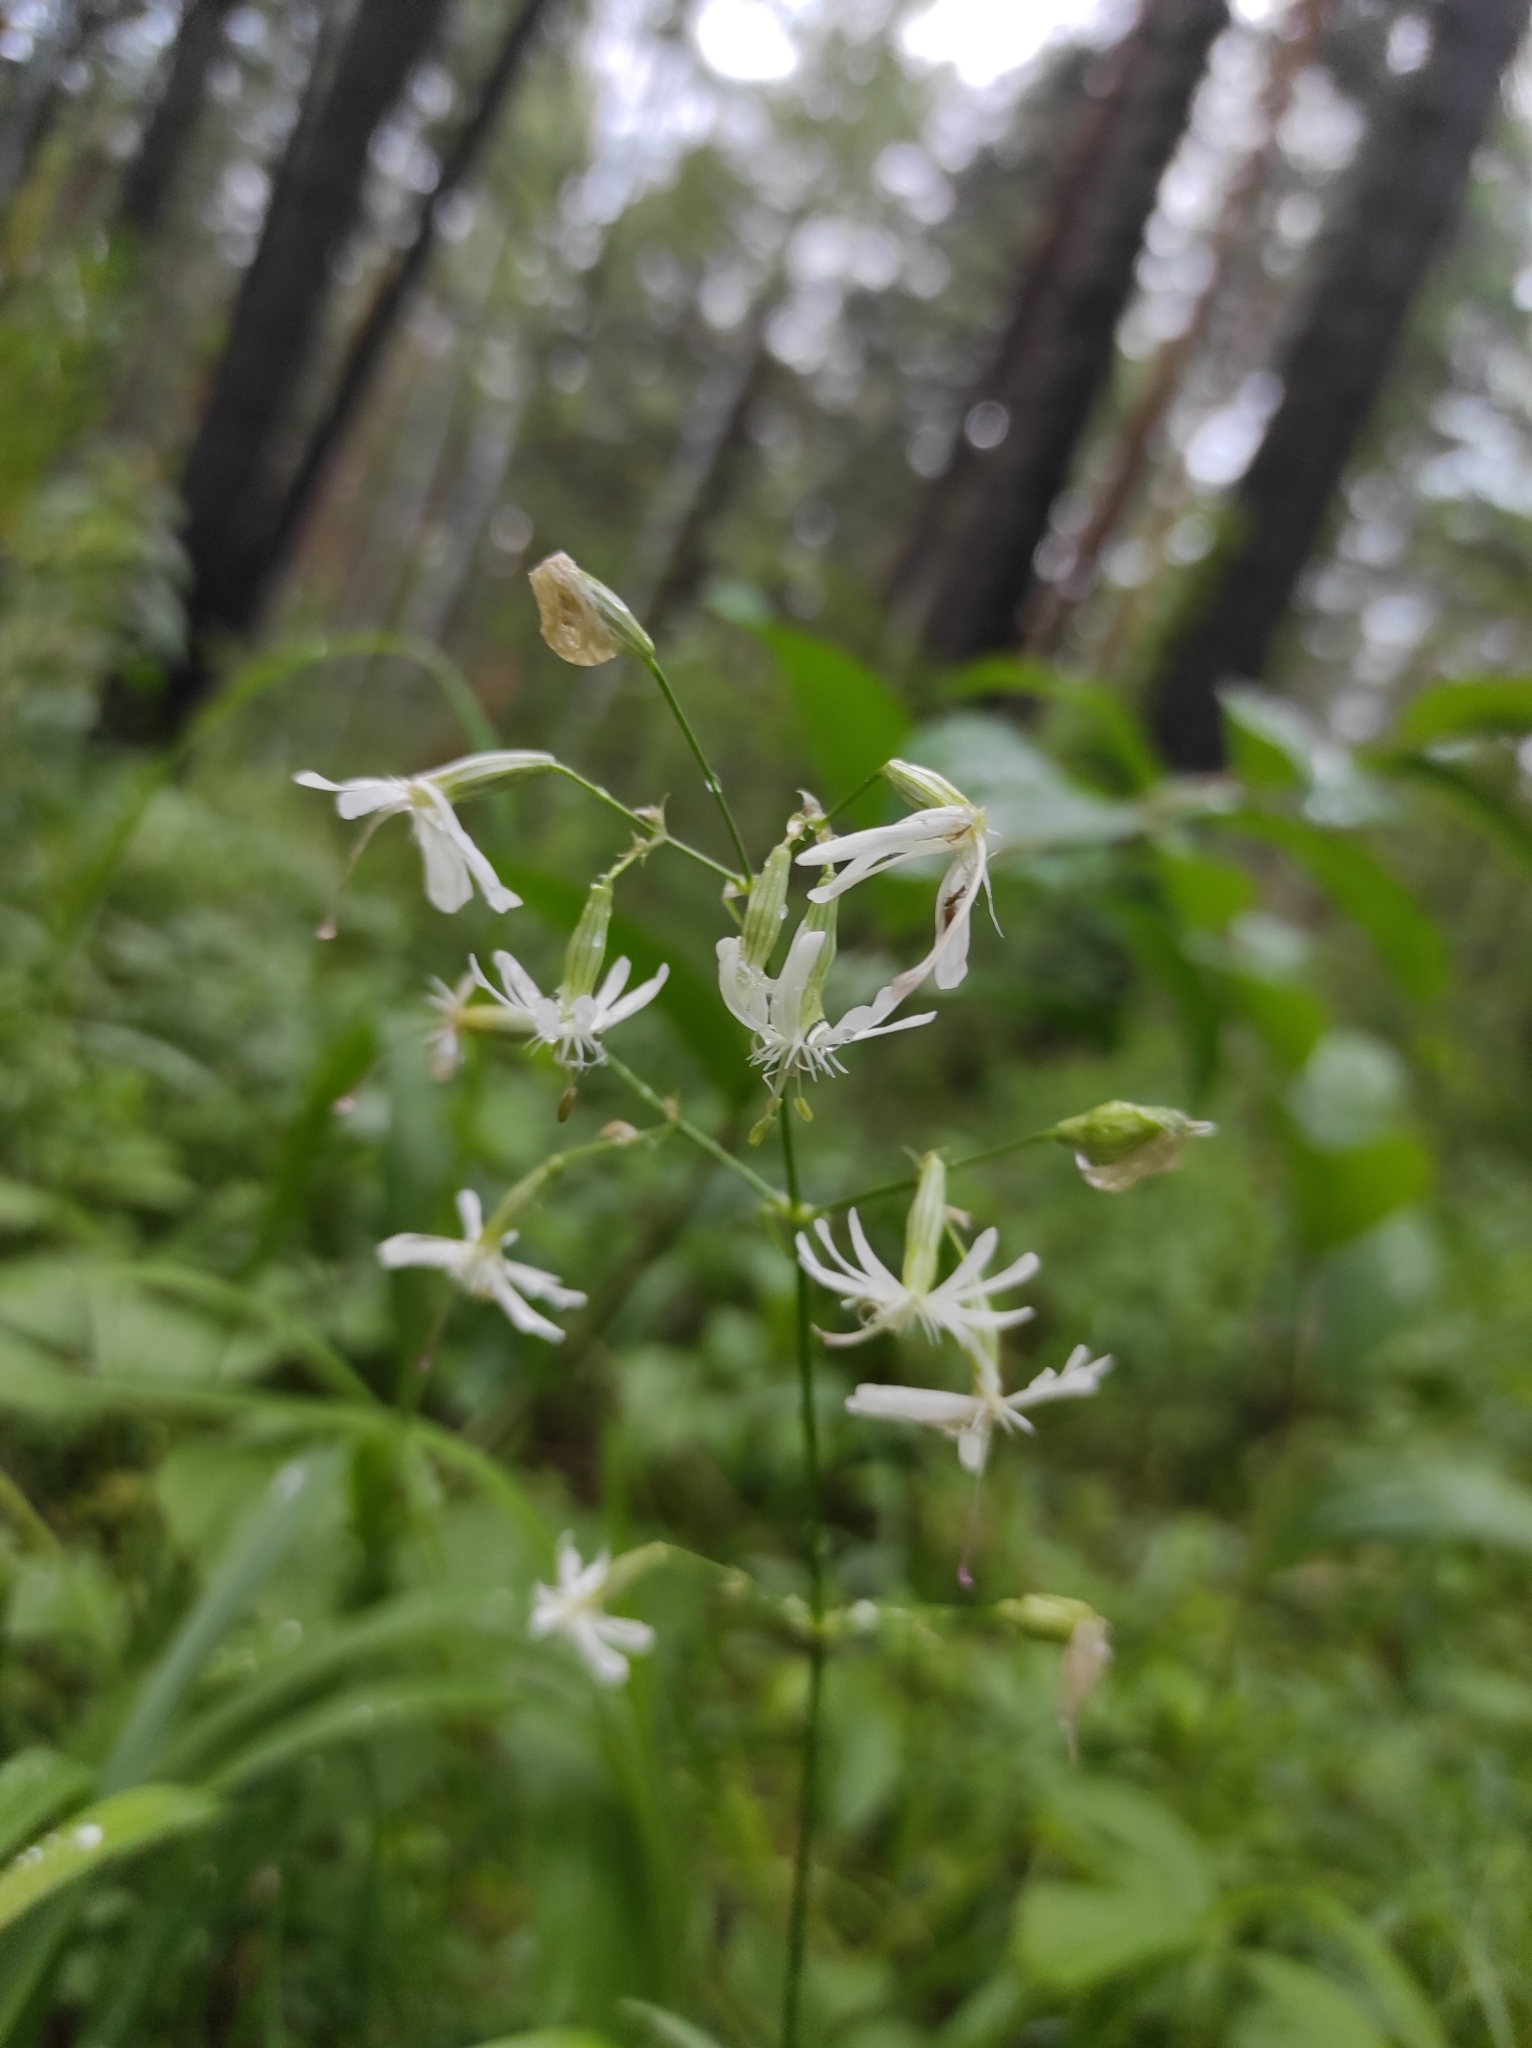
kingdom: Plantae
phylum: Tracheophyta
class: Magnoliopsida
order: Caryophyllales
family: Caryophyllaceae
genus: Silene
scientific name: Silene nutans
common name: Nottingham catchfly
